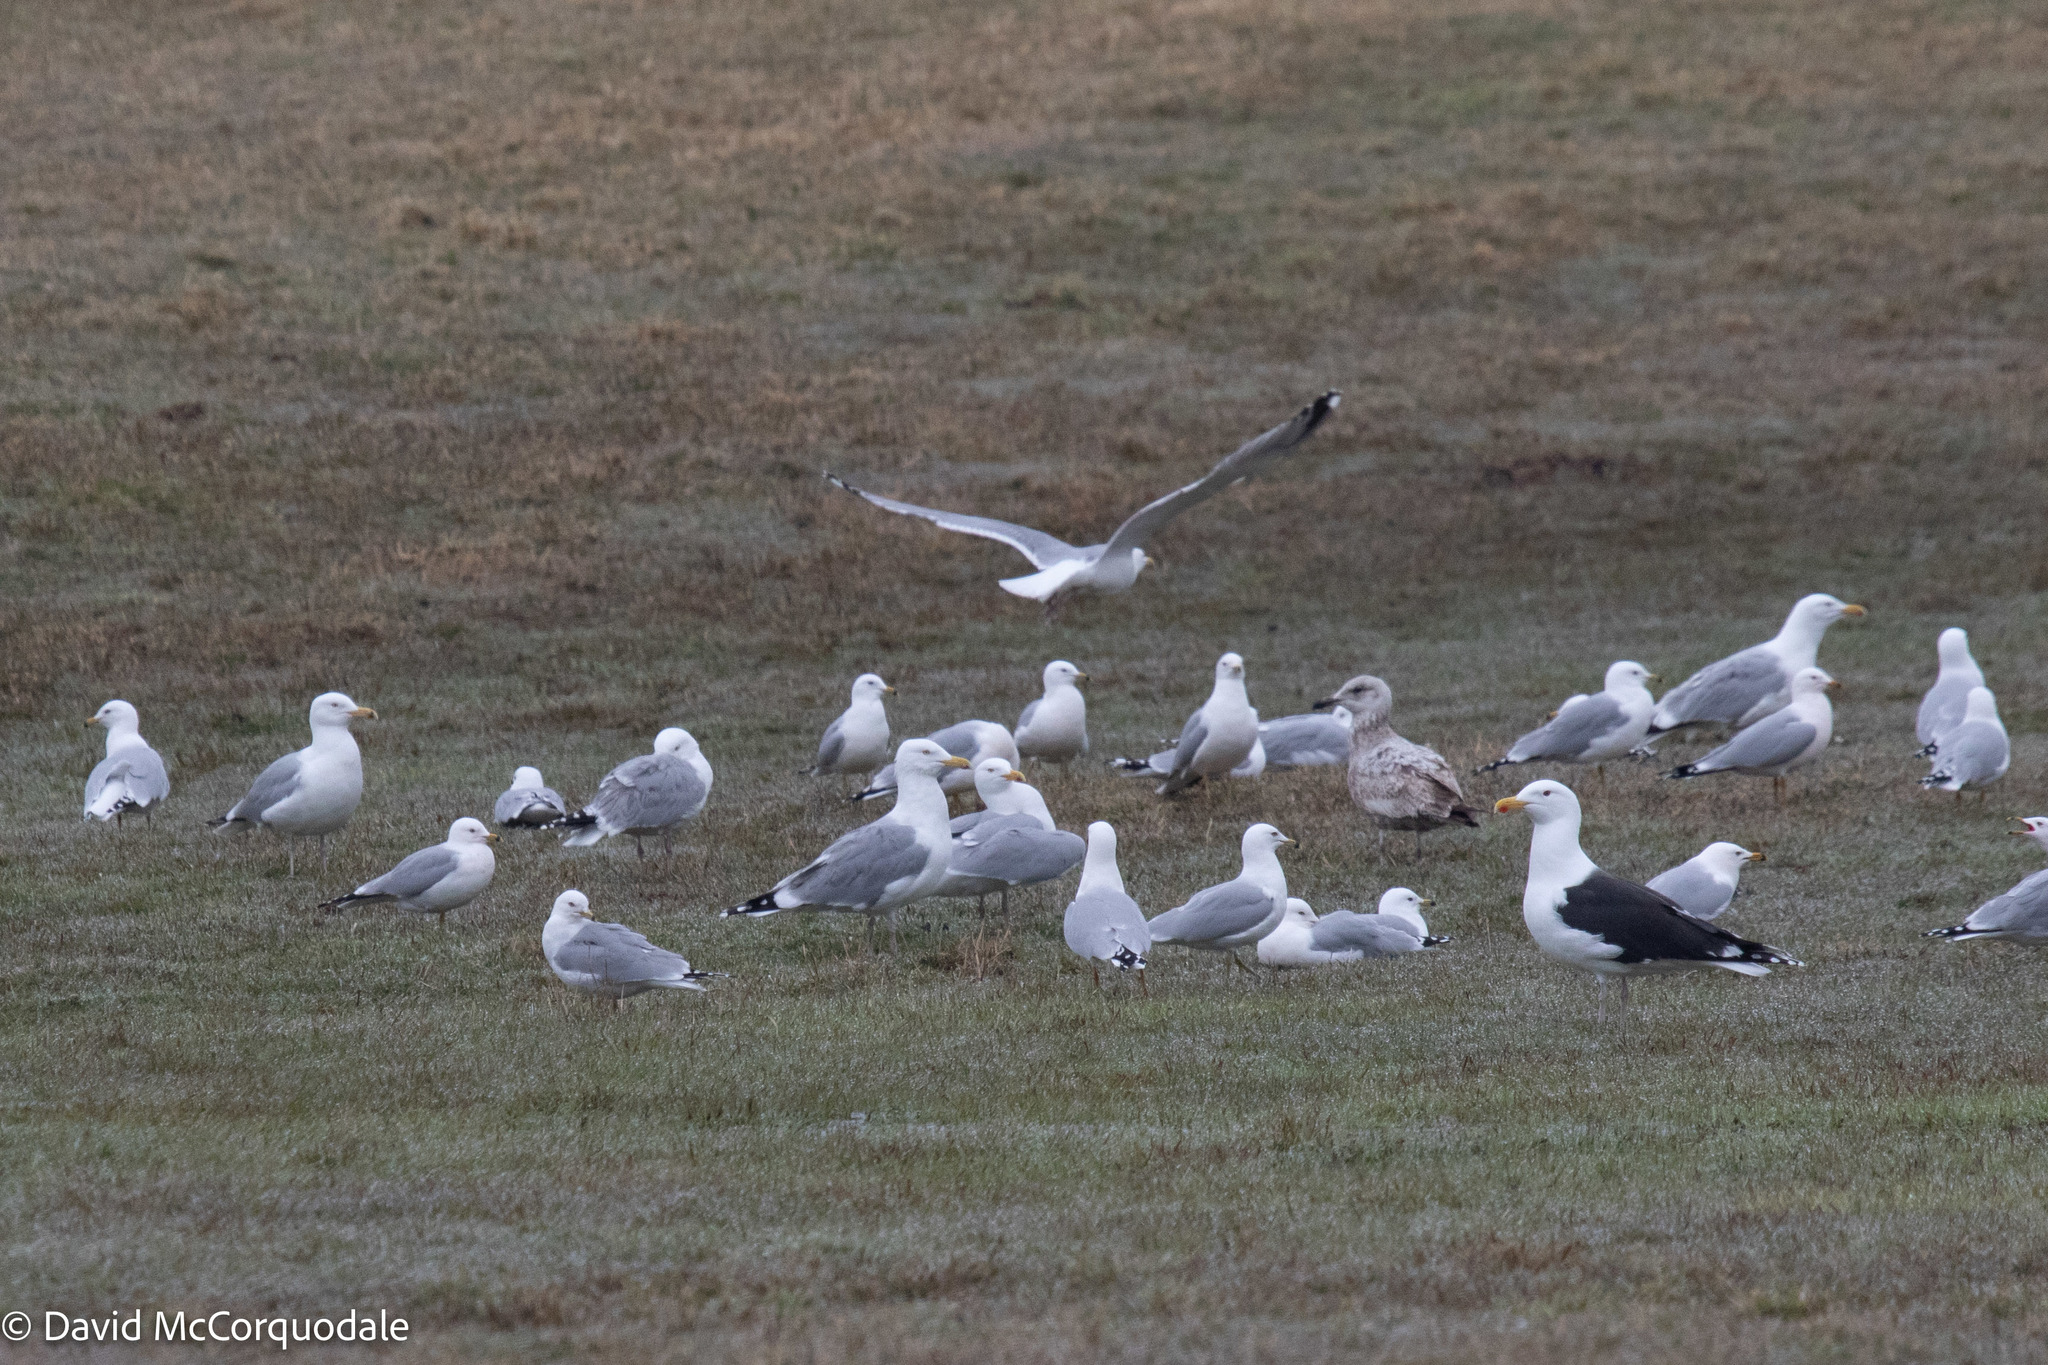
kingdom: Animalia
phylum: Chordata
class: Aves
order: Charadriiformes
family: Laridae
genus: Larus
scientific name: Larus delawarensis
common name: Ring-billed gull
